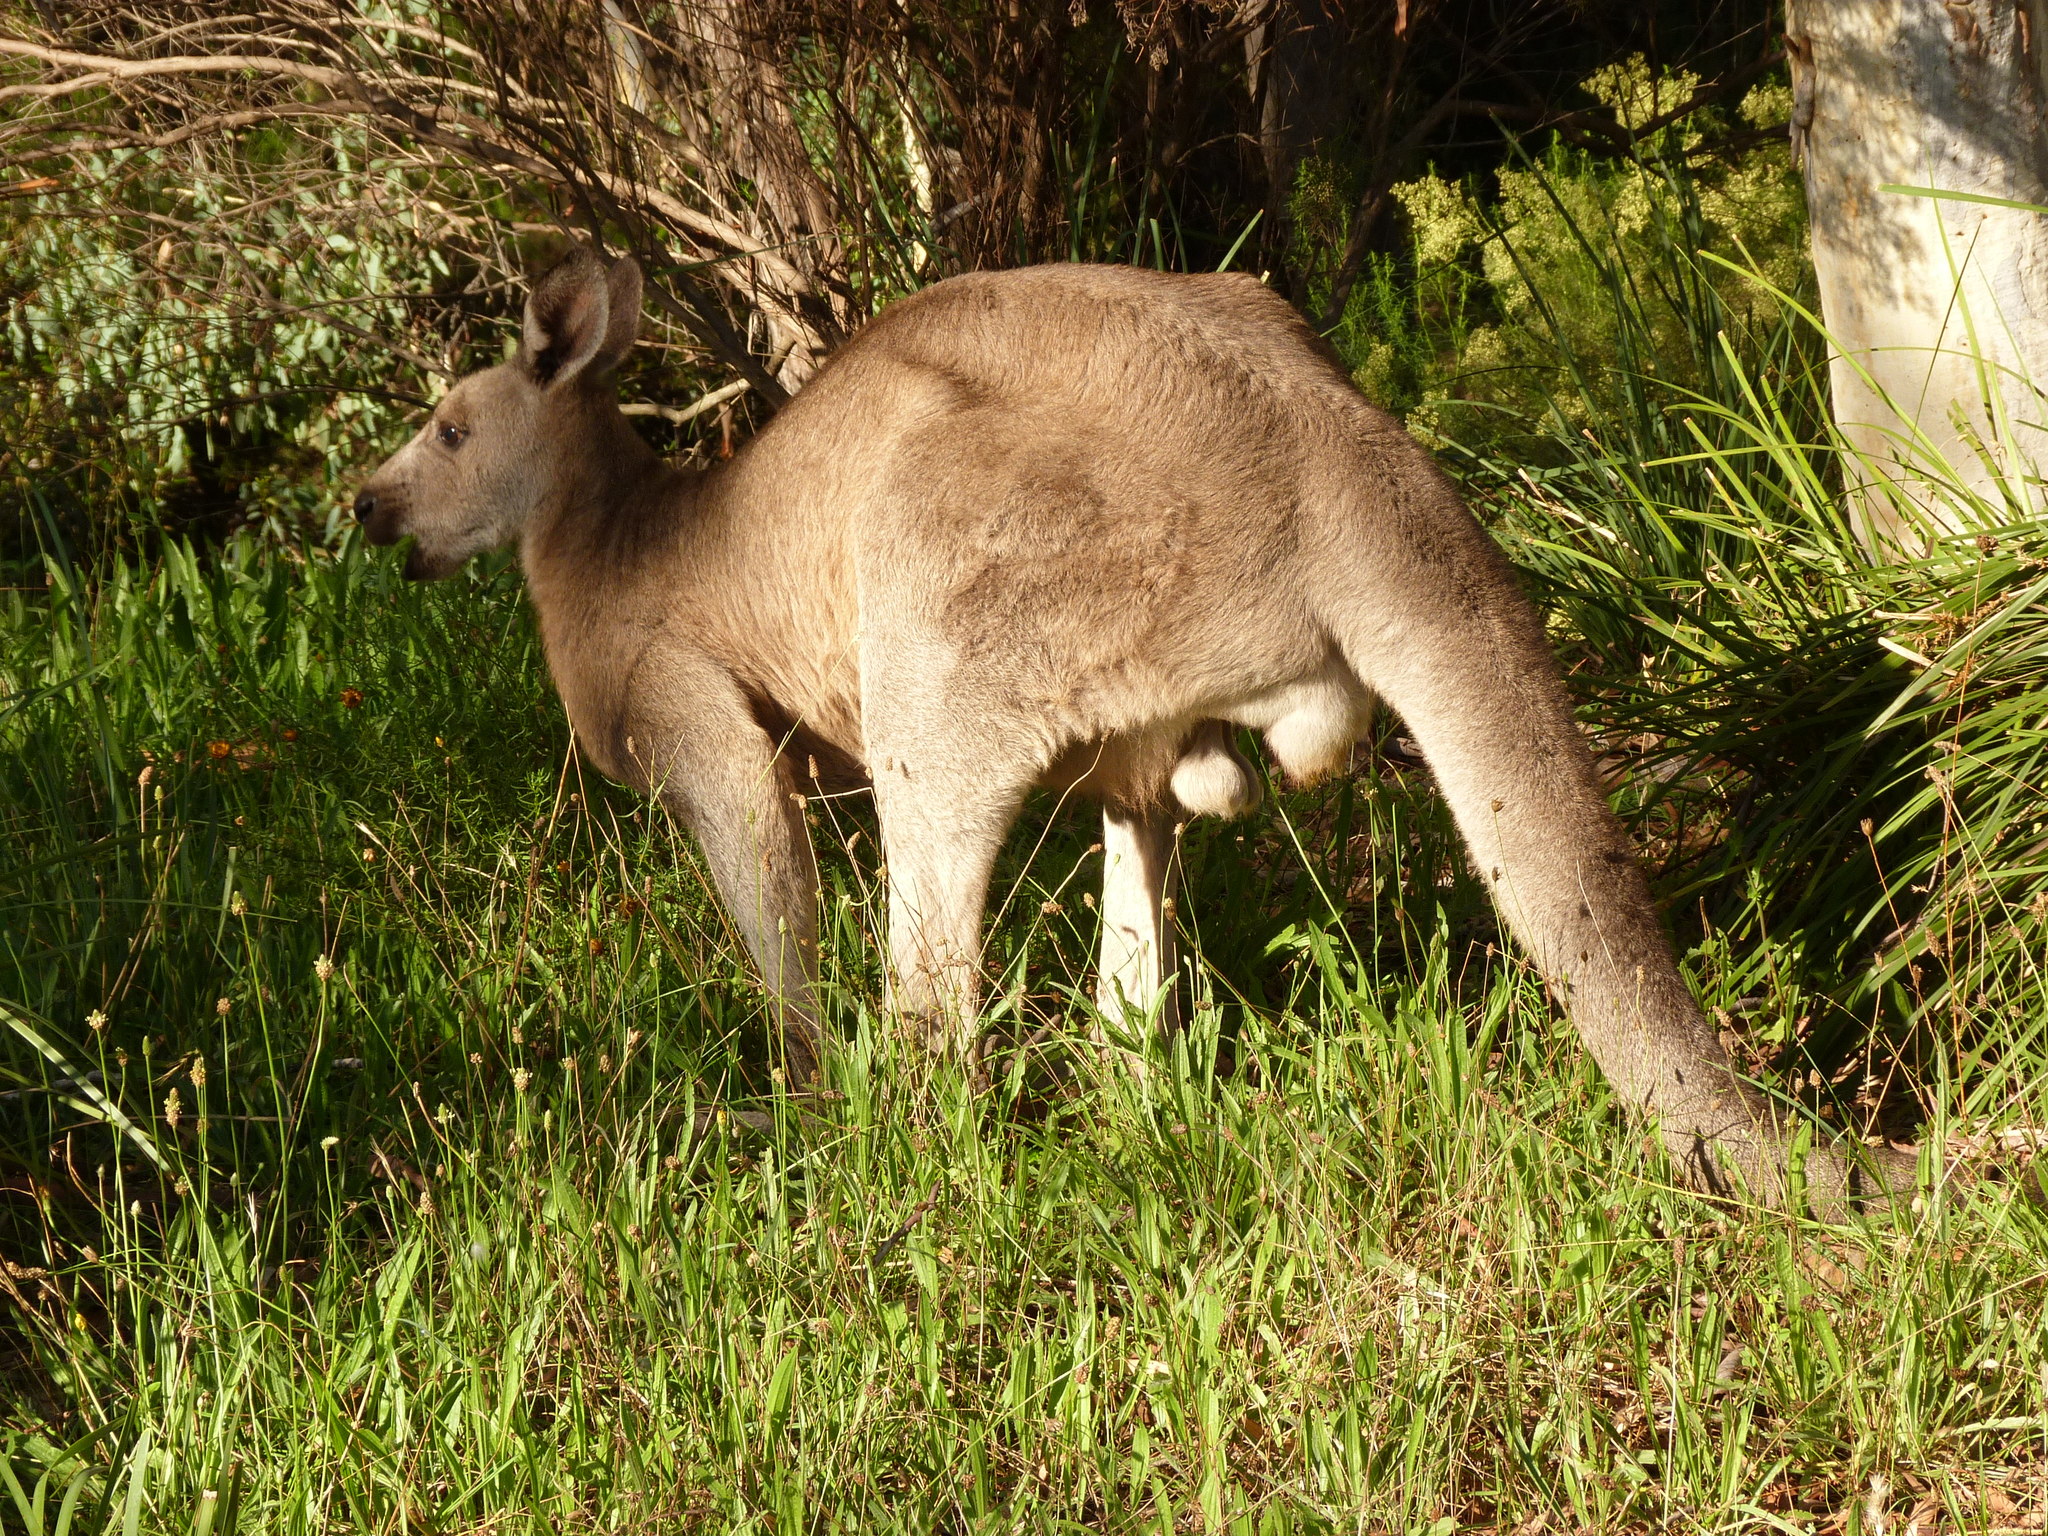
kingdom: Animalia
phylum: Chordata
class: Mammalia
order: Diprotodontia
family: Macropodidae
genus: Macropus
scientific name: Macropus giganteus
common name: Eastern grey kangaroo
